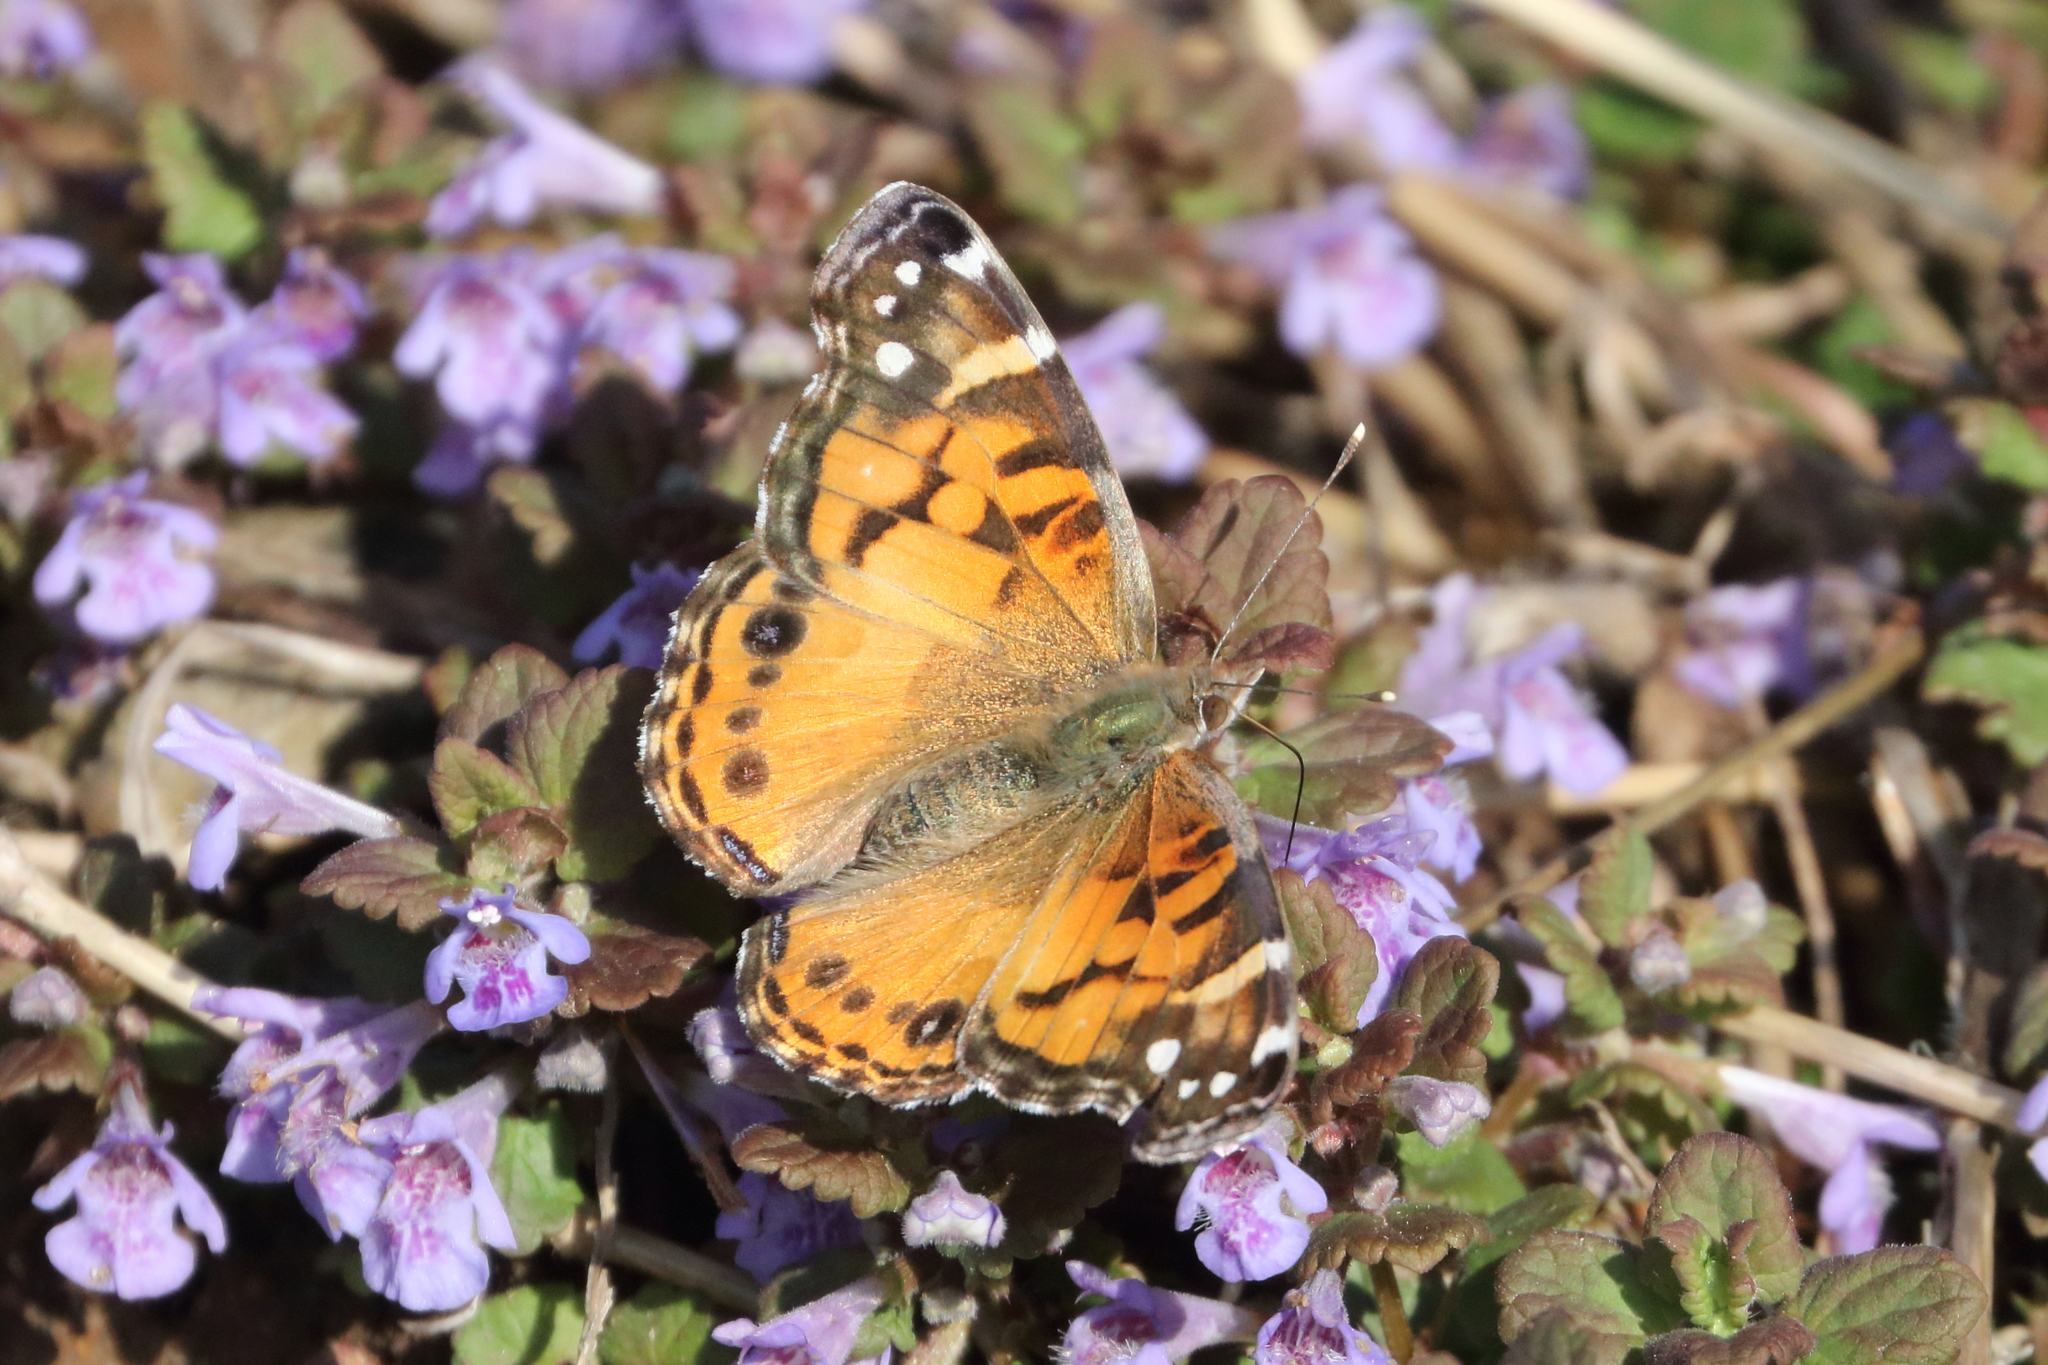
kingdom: Animalia
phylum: Arthropoda
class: Insecta
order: Lepidoptera
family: Nymphalidae
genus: Vanessa
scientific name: Vanessa virginiensis
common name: American lady
